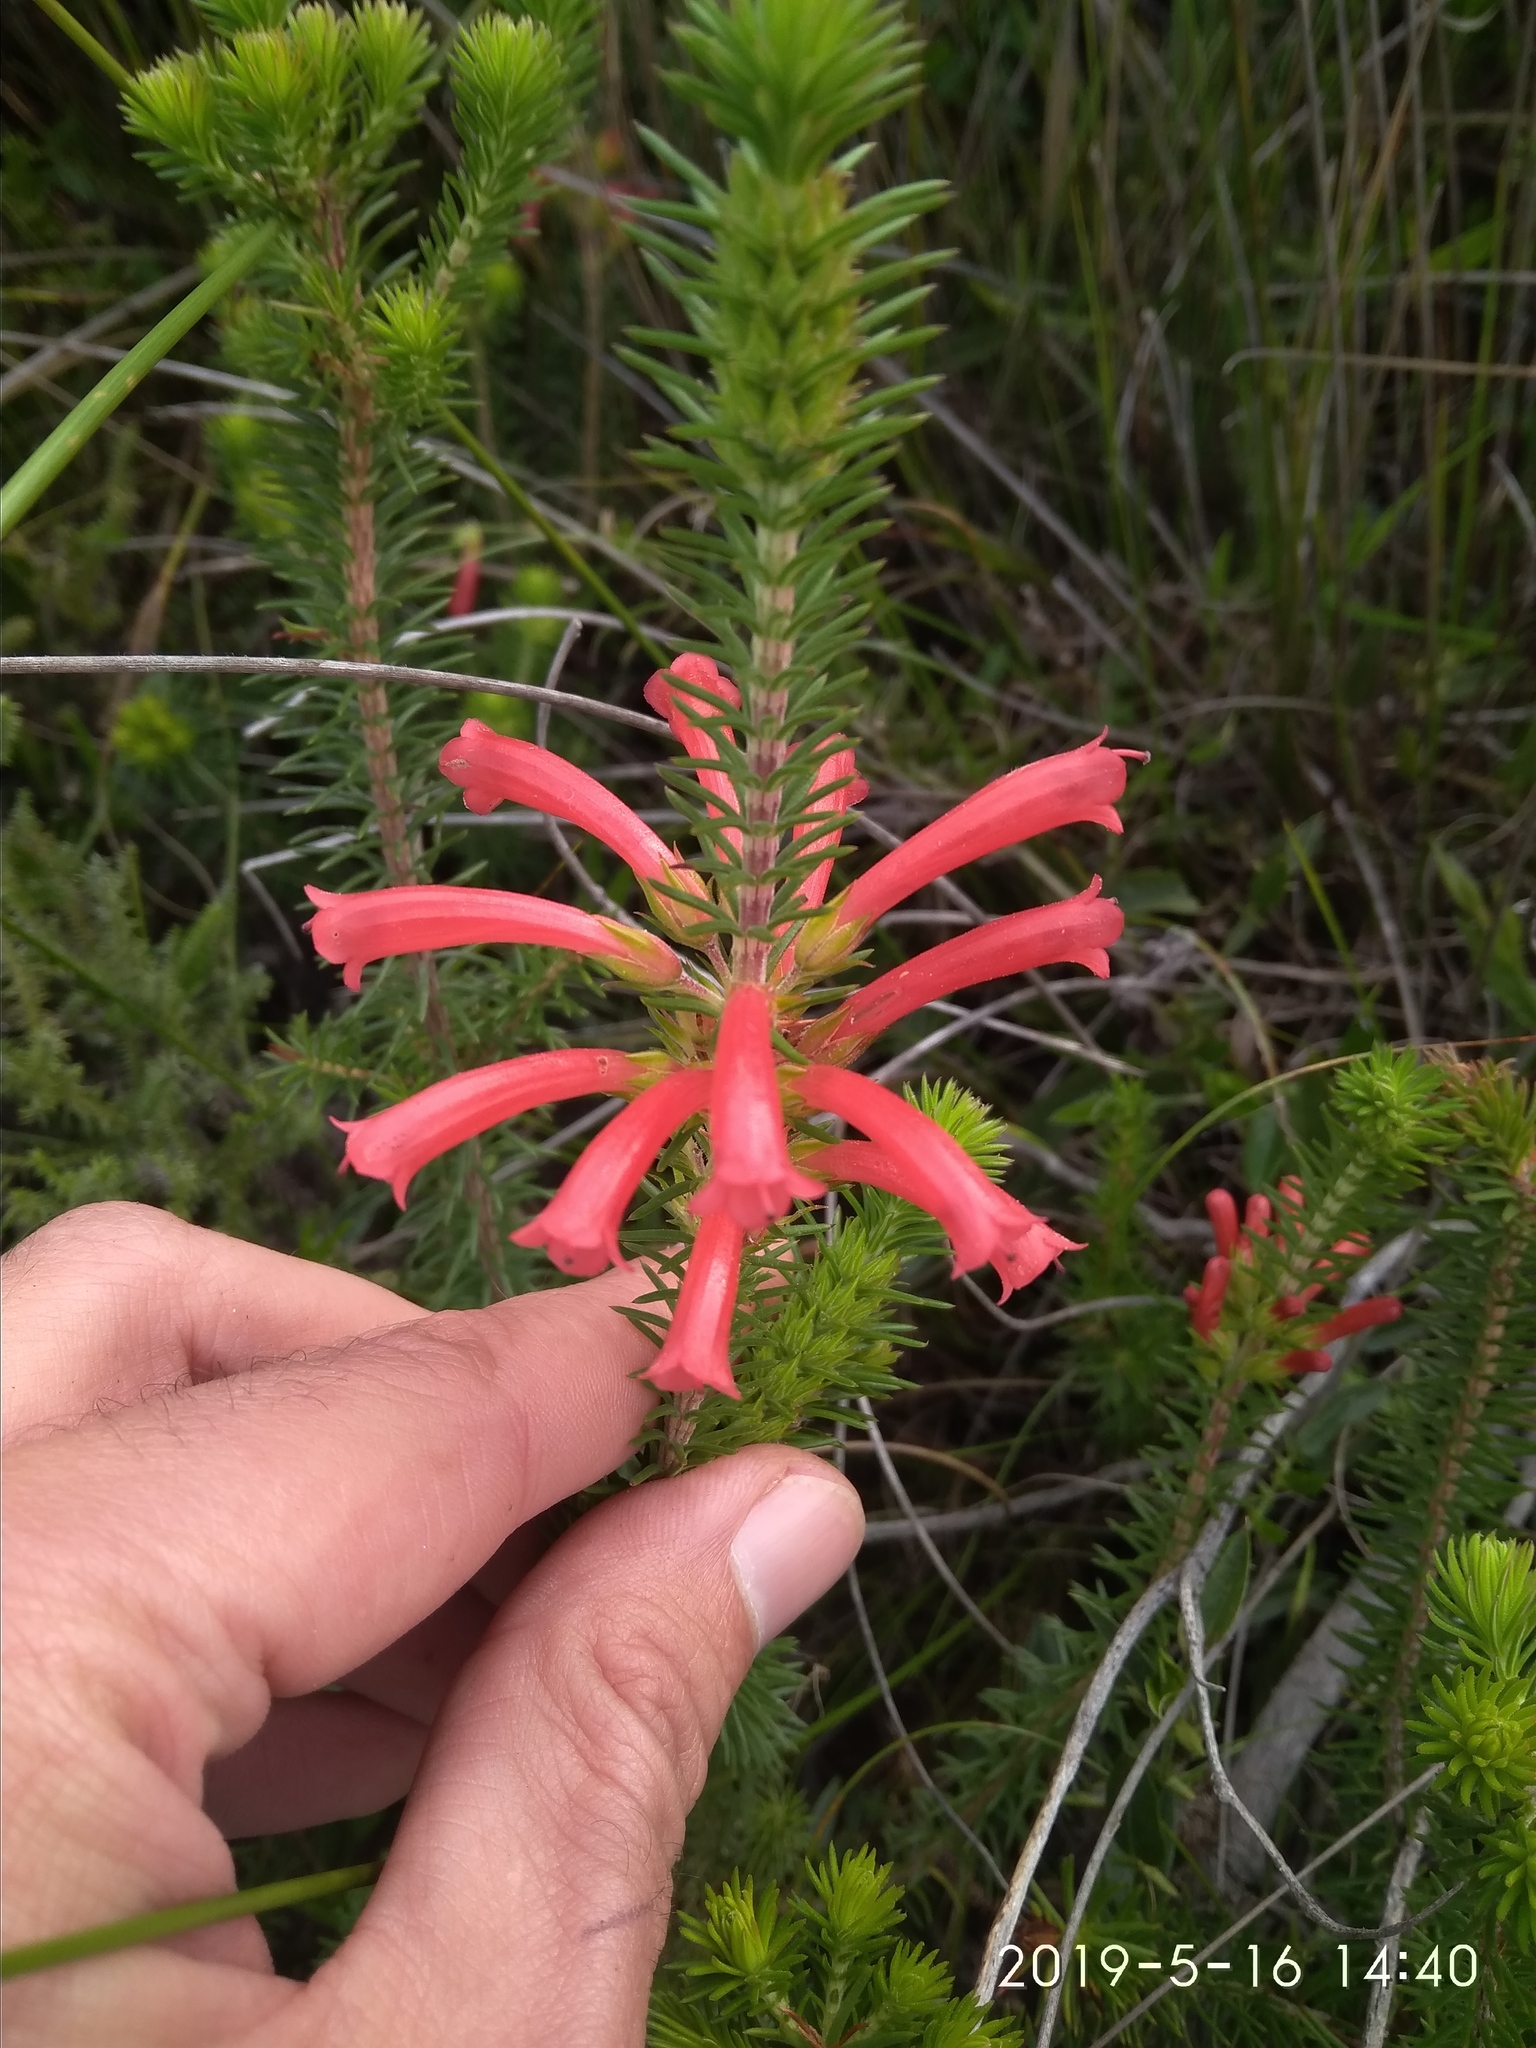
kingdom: Plantae
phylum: Tracheophyta
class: Magnoliopsida
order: Ericales
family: Ericaceae
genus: Erica
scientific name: Erica abietina
